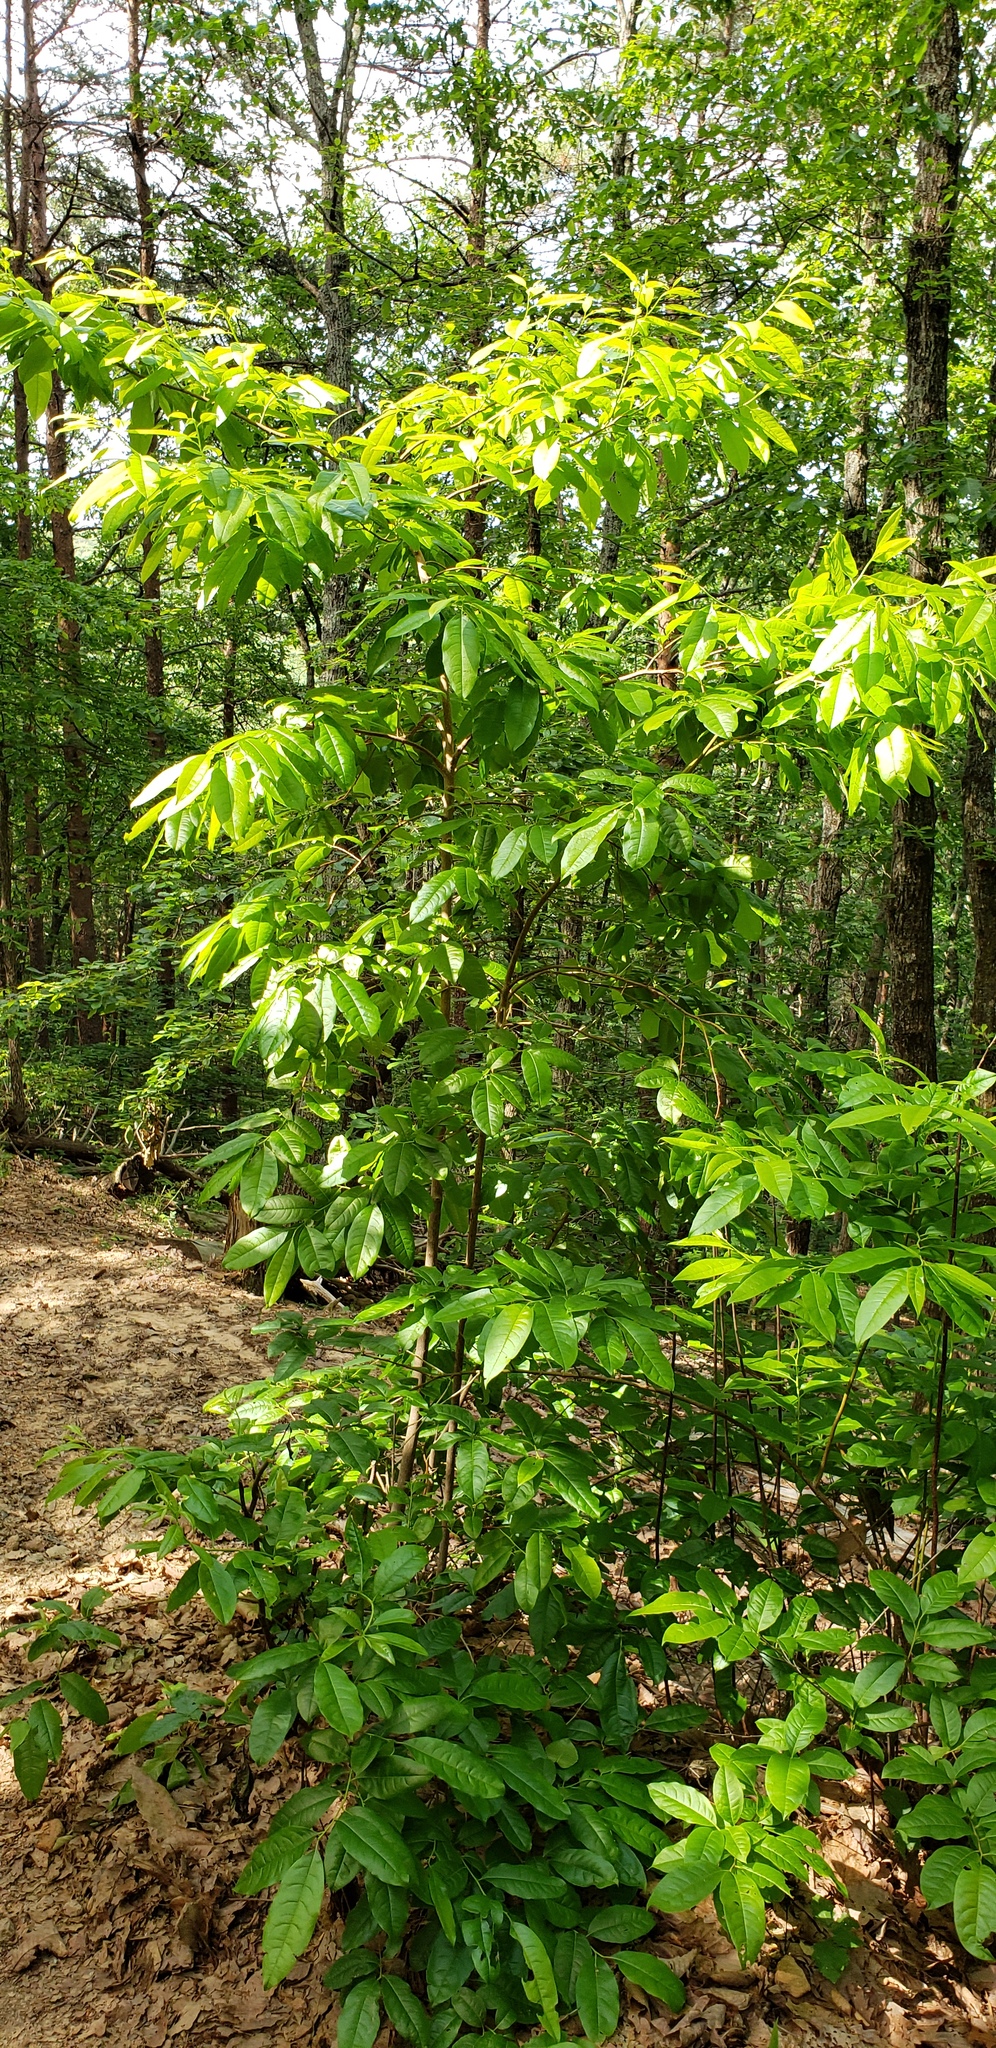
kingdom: Plantae
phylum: Tracheophyta
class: Magnoliopsida
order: Ericales
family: Ericaceae
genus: Oxydendrum
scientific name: Oxydendrum arboreum
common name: Sourwood
